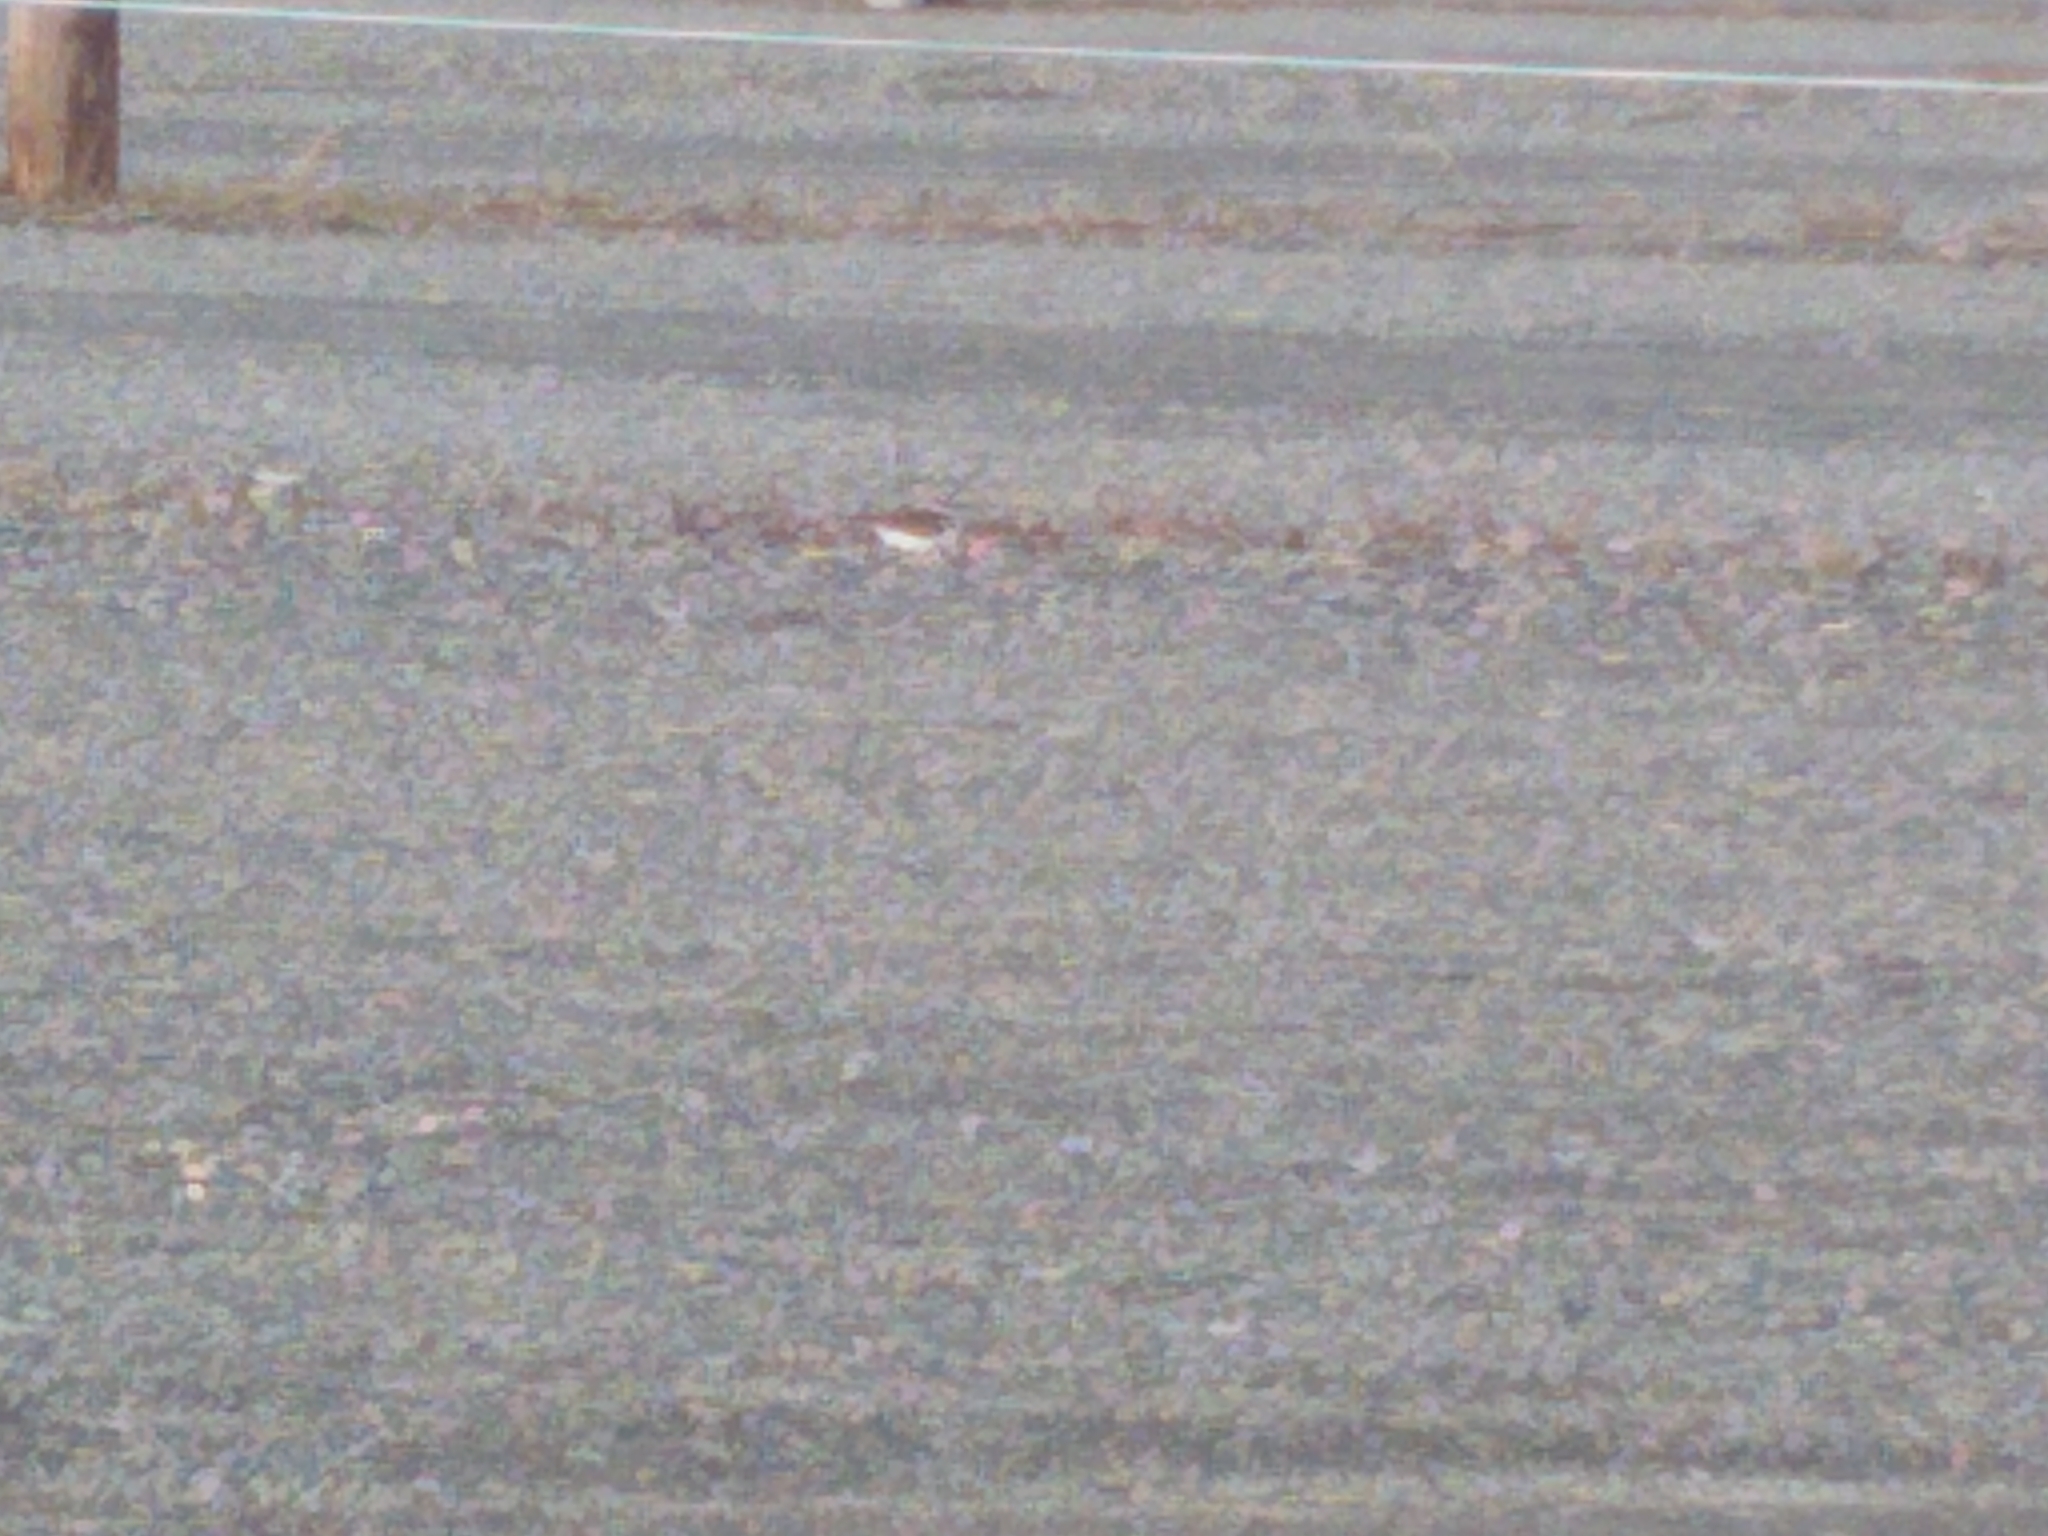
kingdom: Animalia
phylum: Chordata
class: Aves
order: Charadriiformes
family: Charadriidae
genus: Charadrius
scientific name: Charadrius vociferus
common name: Killdeer
